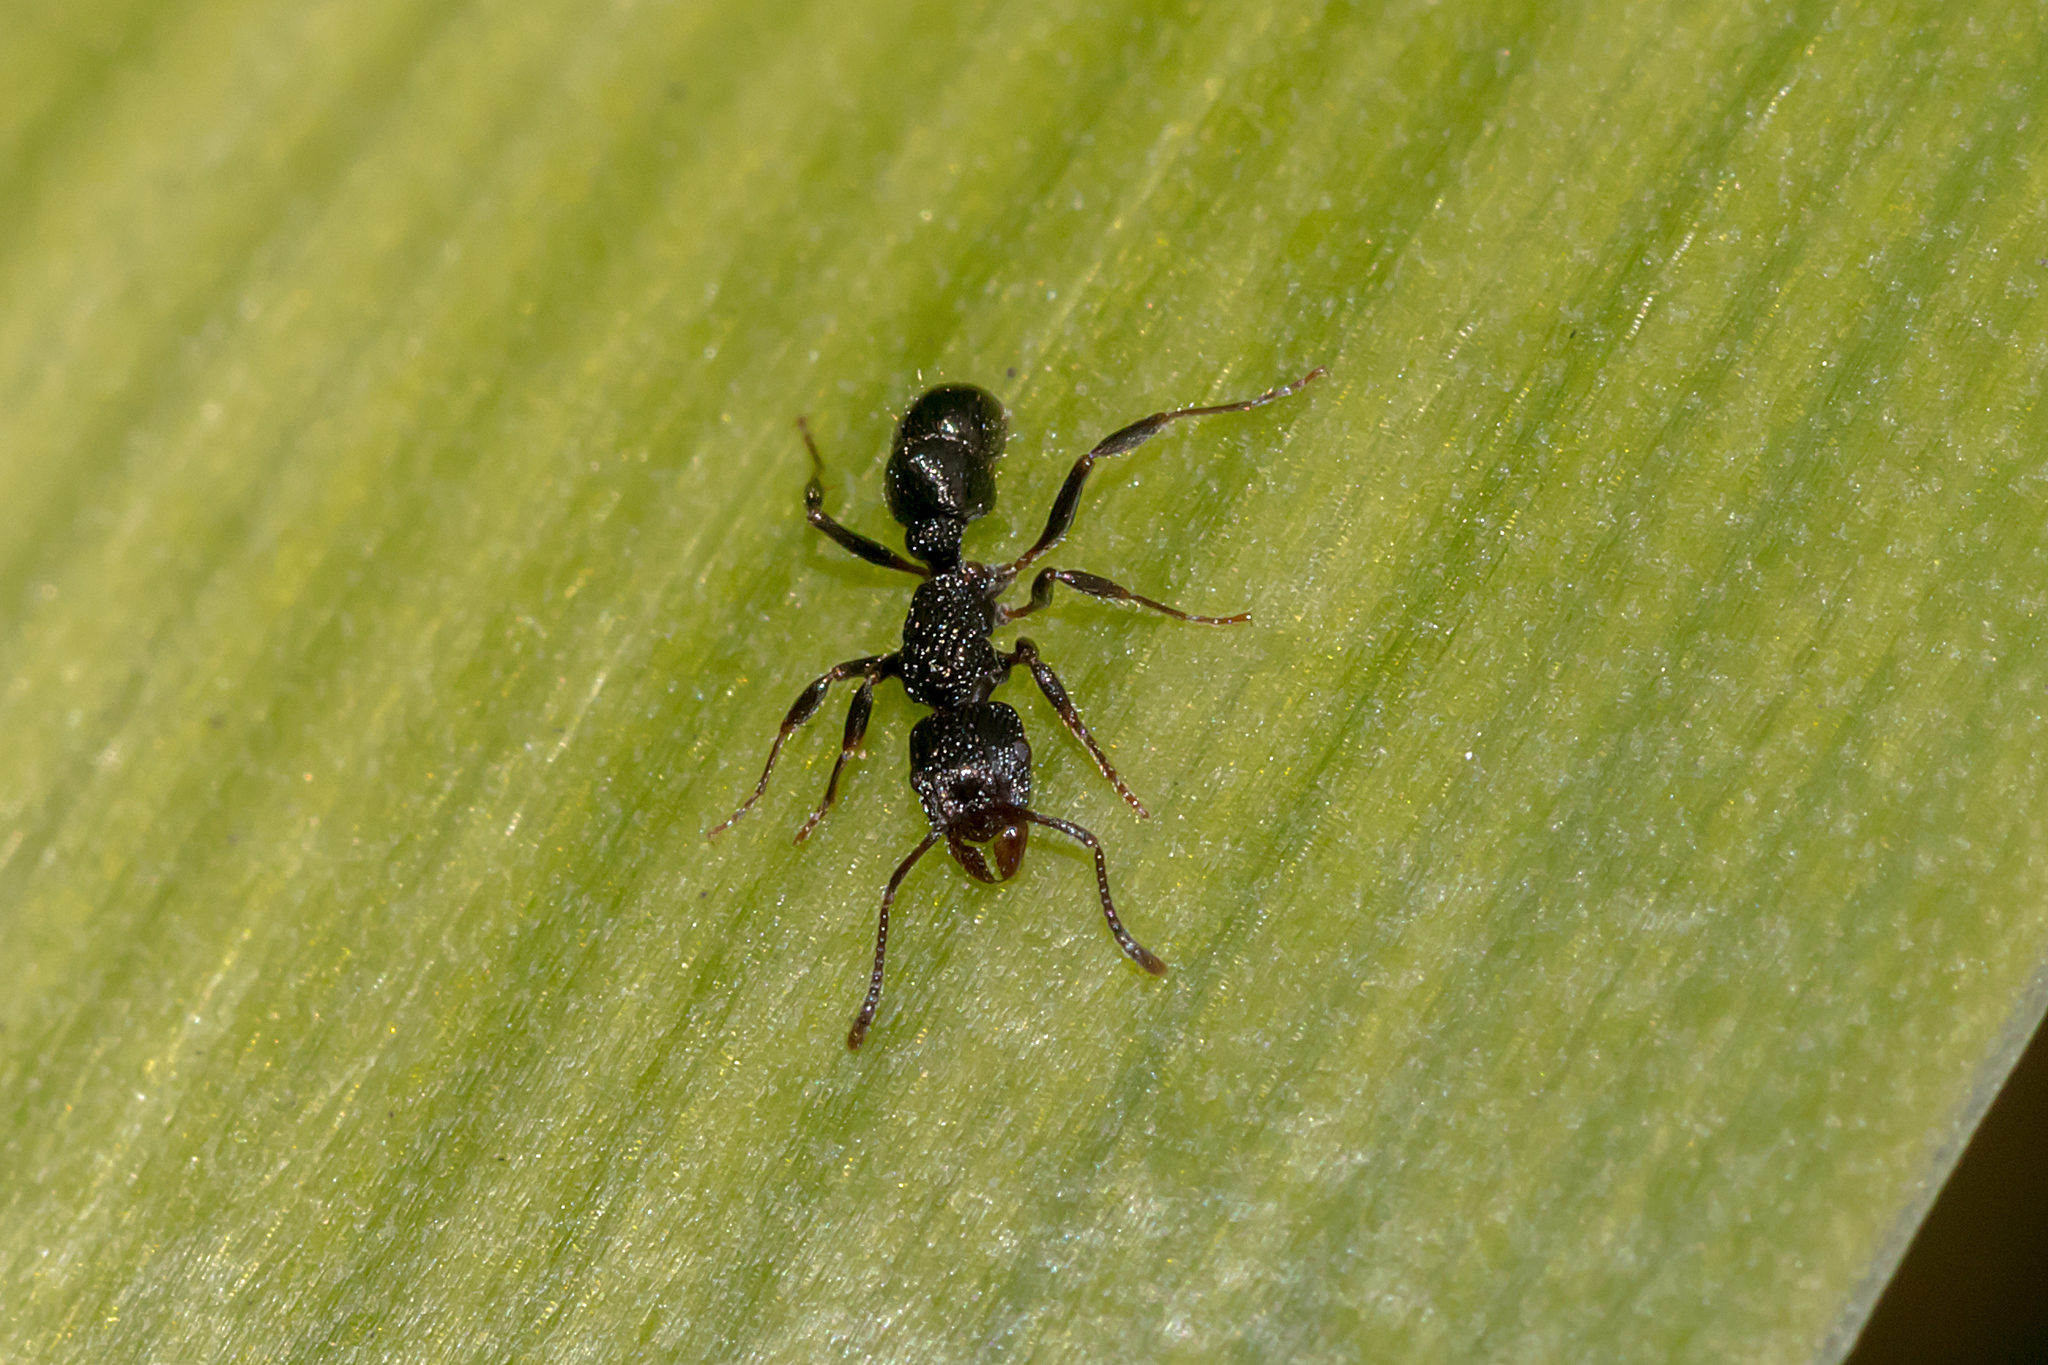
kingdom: Animalia
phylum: Arthropoda
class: Insecta
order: Hymenoptera
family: Formicidae
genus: Rhytidoponera
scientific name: Rhytidoponera victoriae
